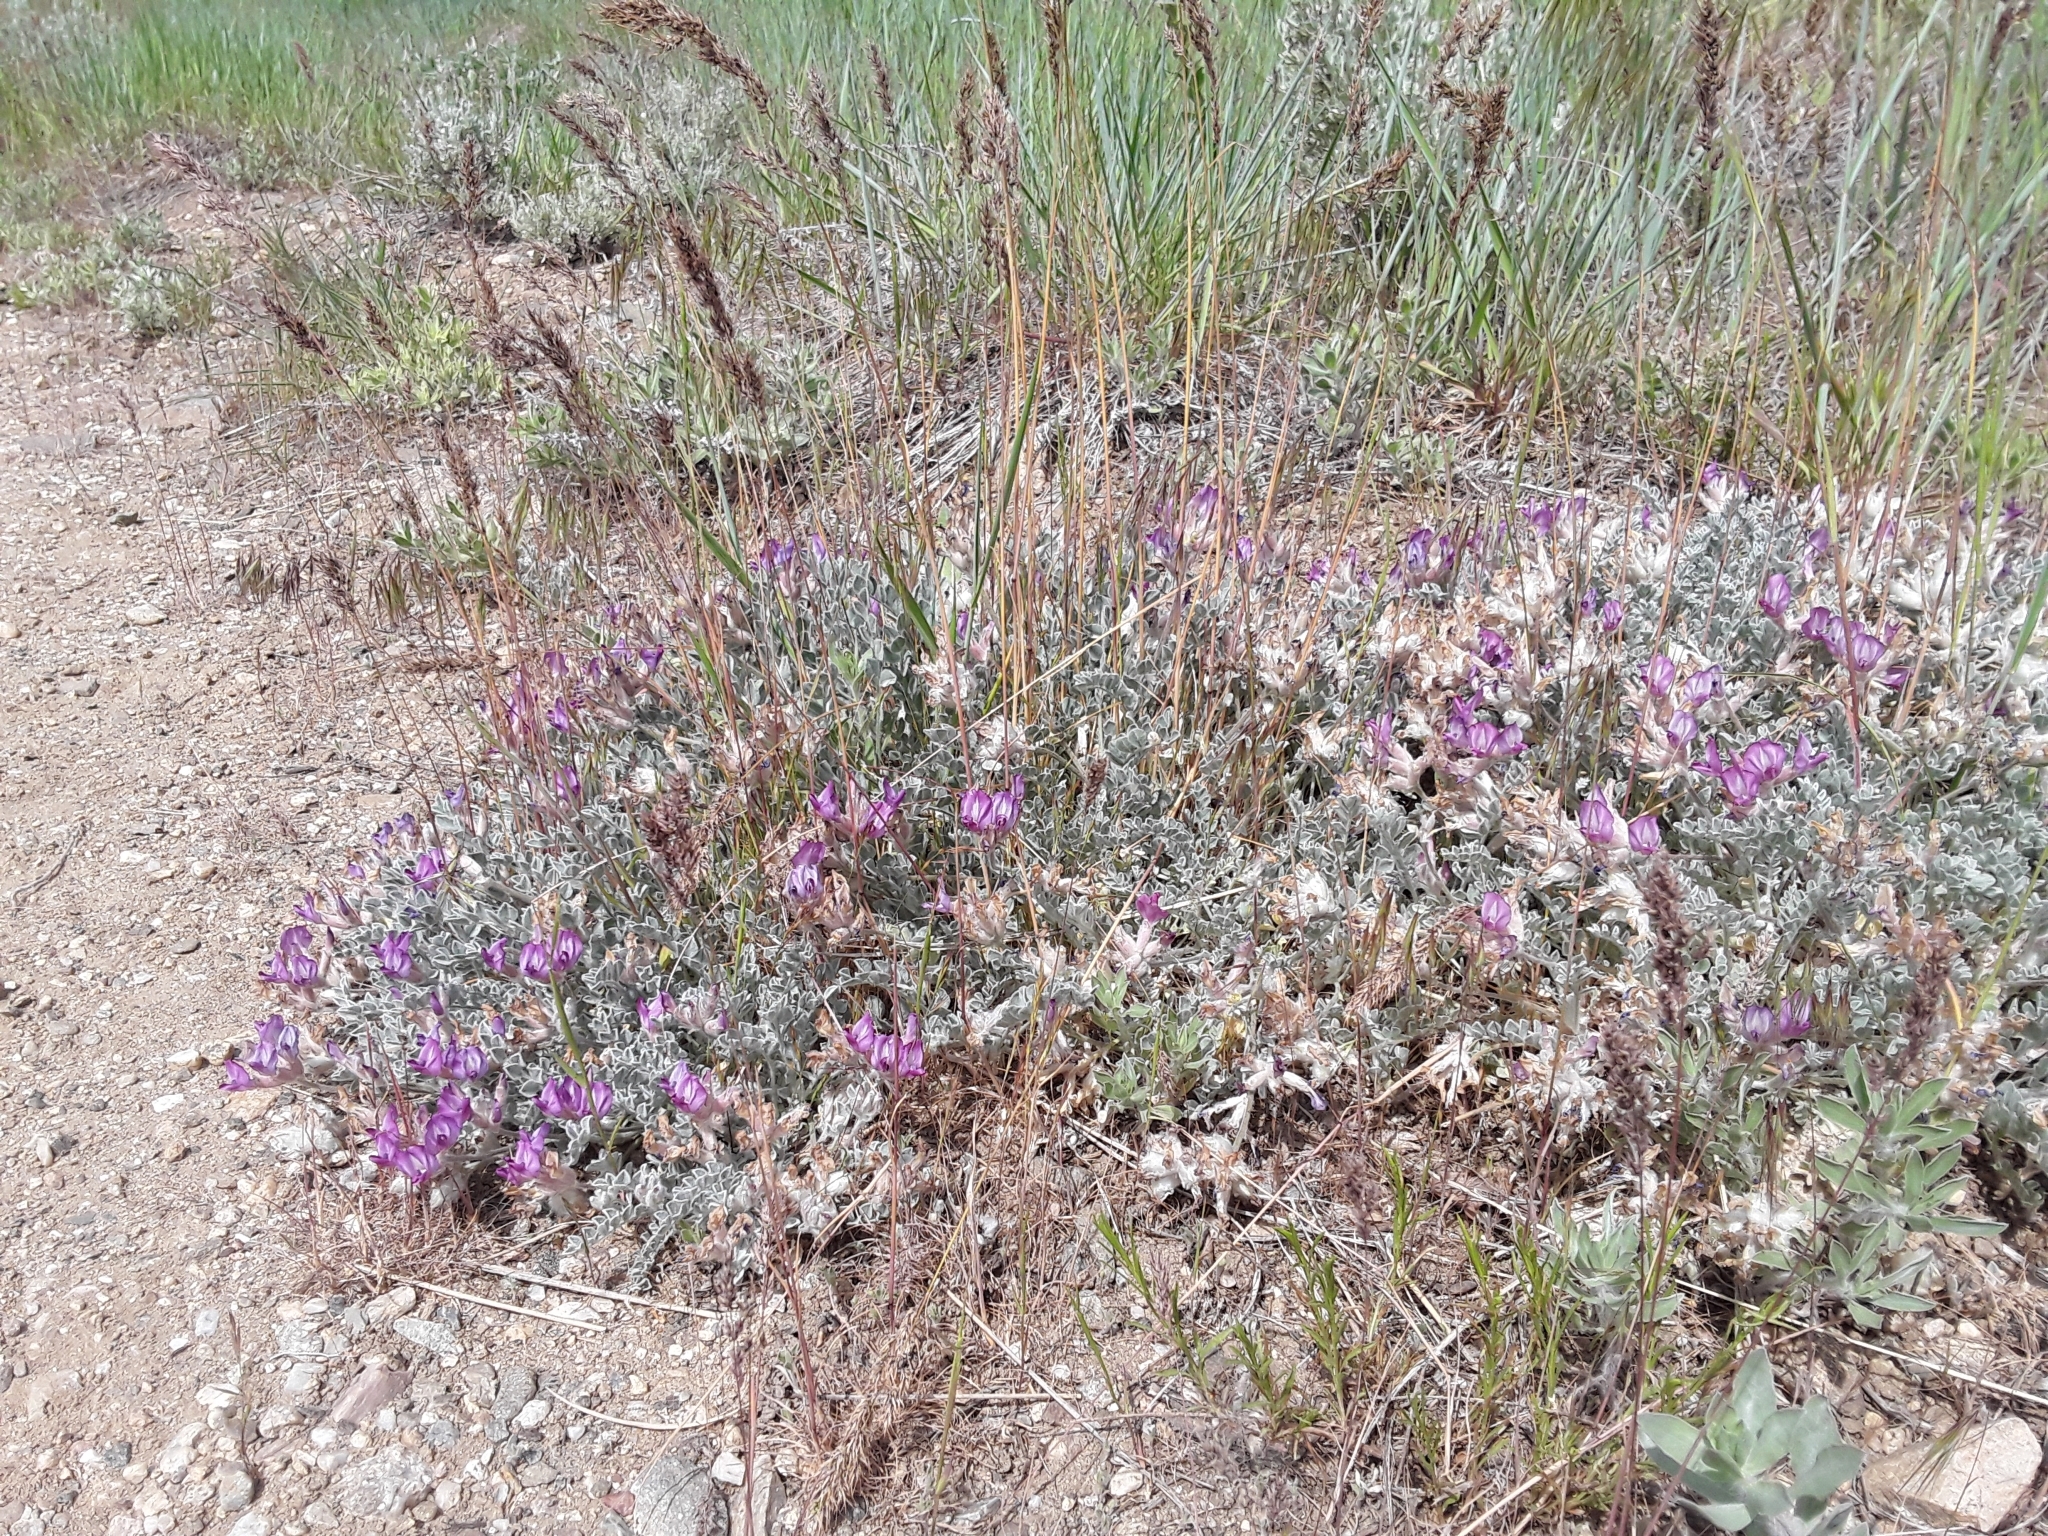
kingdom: Plantae
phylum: Tracheophyta
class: Magnoliopsida
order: Fabales
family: Fabaceae
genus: Astragalus
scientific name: Astragalus utahensis
